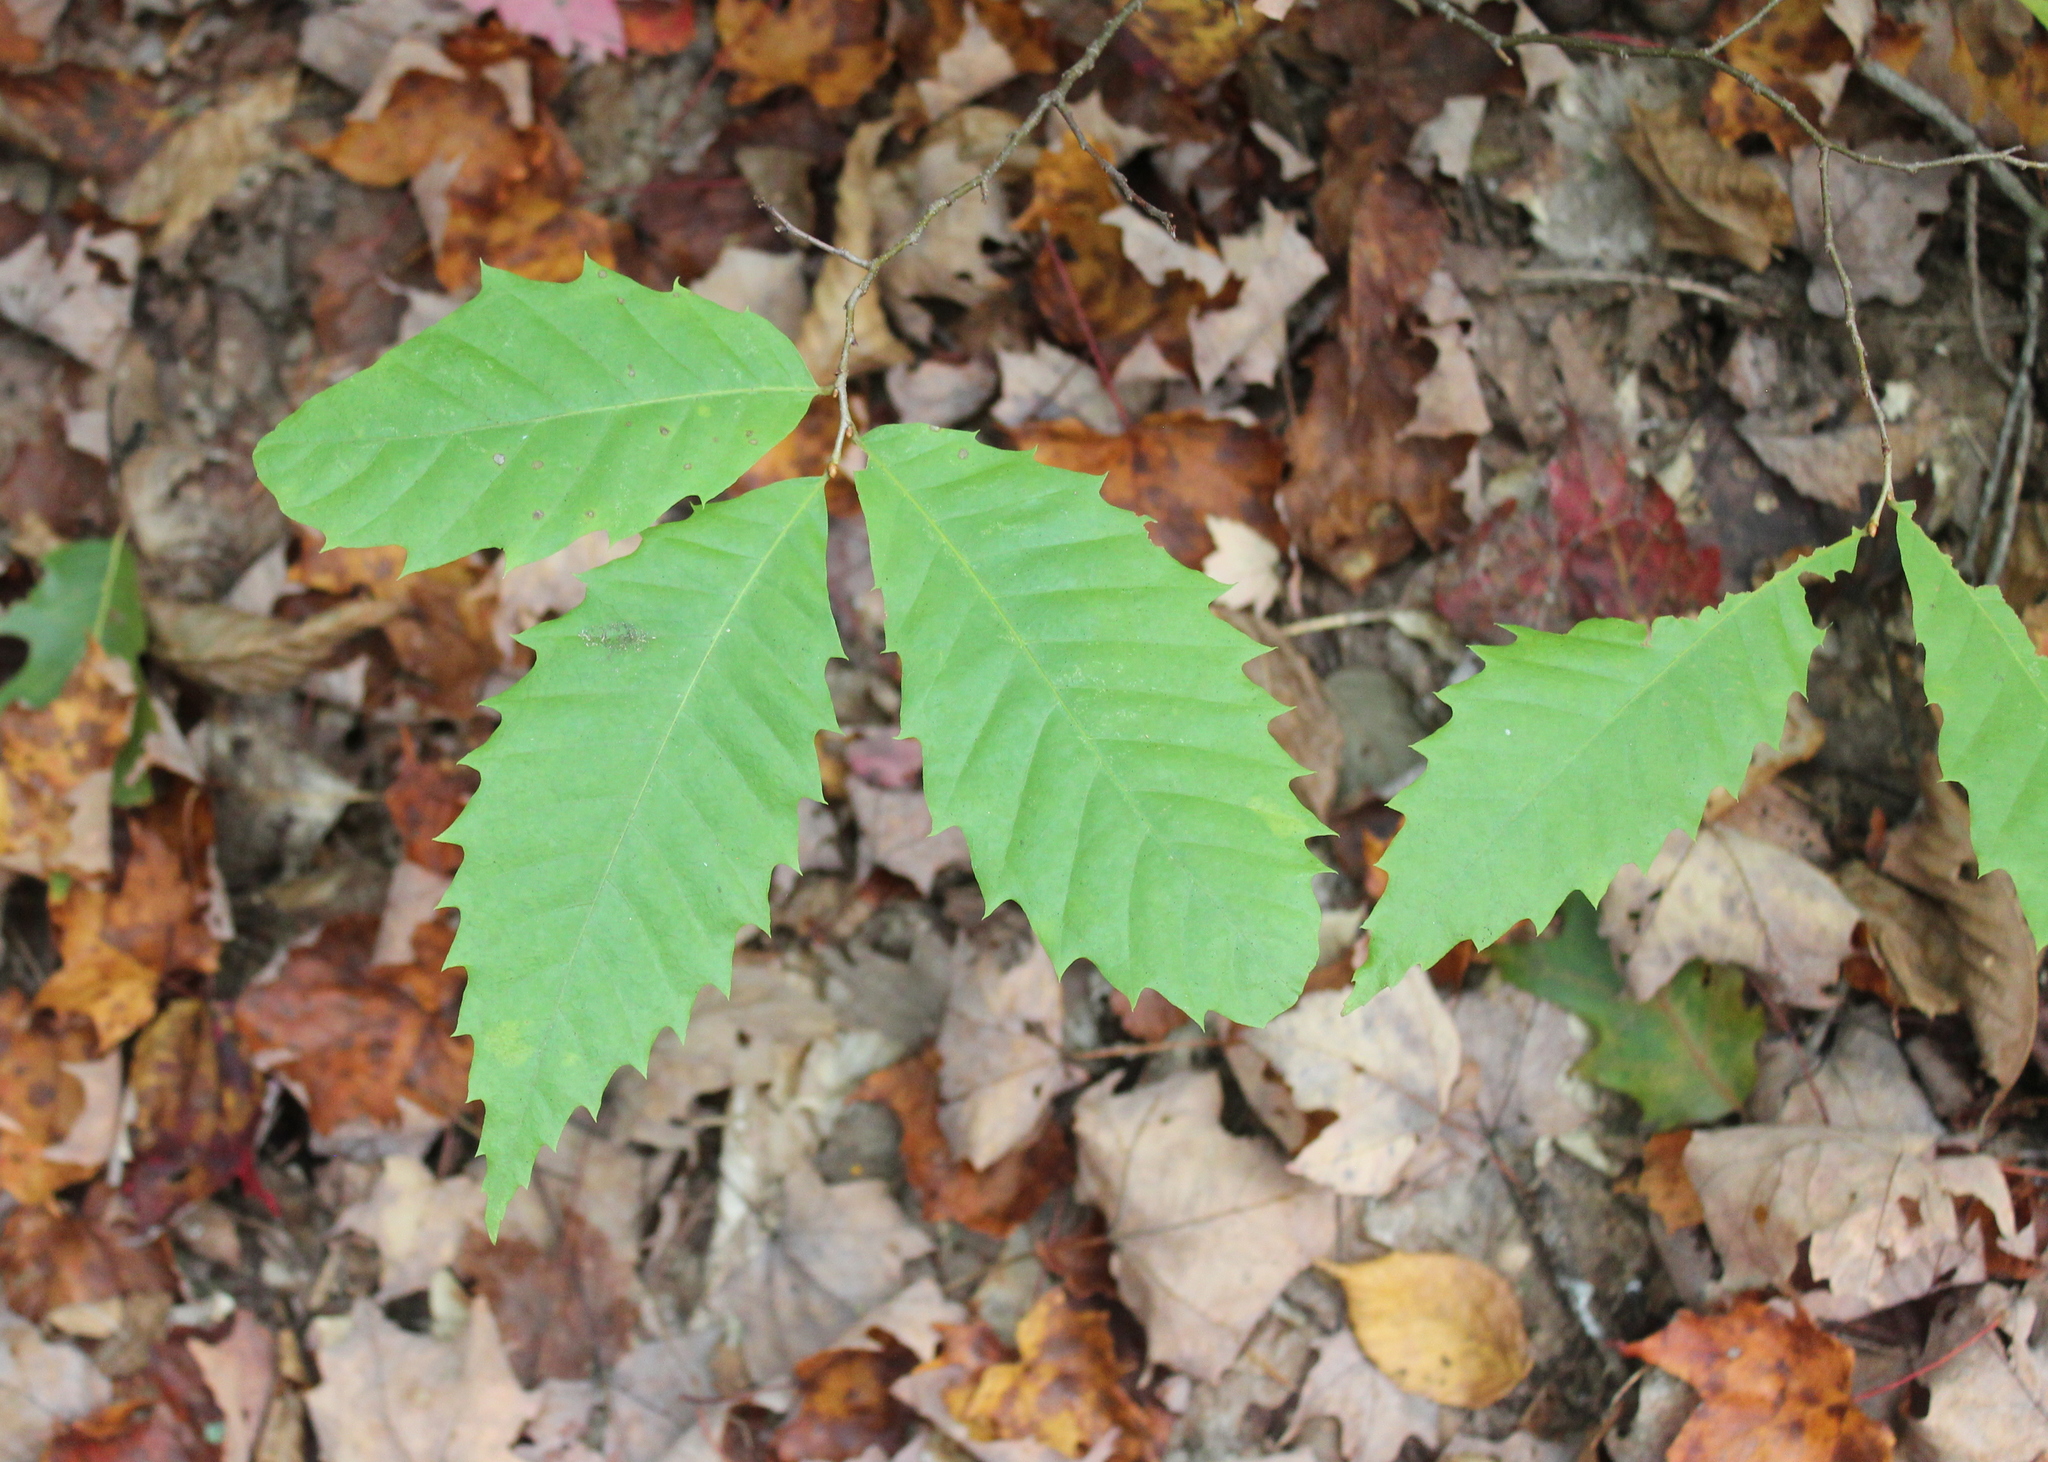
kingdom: Plantae
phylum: Tracheophyta
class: Magnoliopsida
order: Fagales
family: Fagaceae
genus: Castanea
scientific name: Castanea dentata
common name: American chestnut
